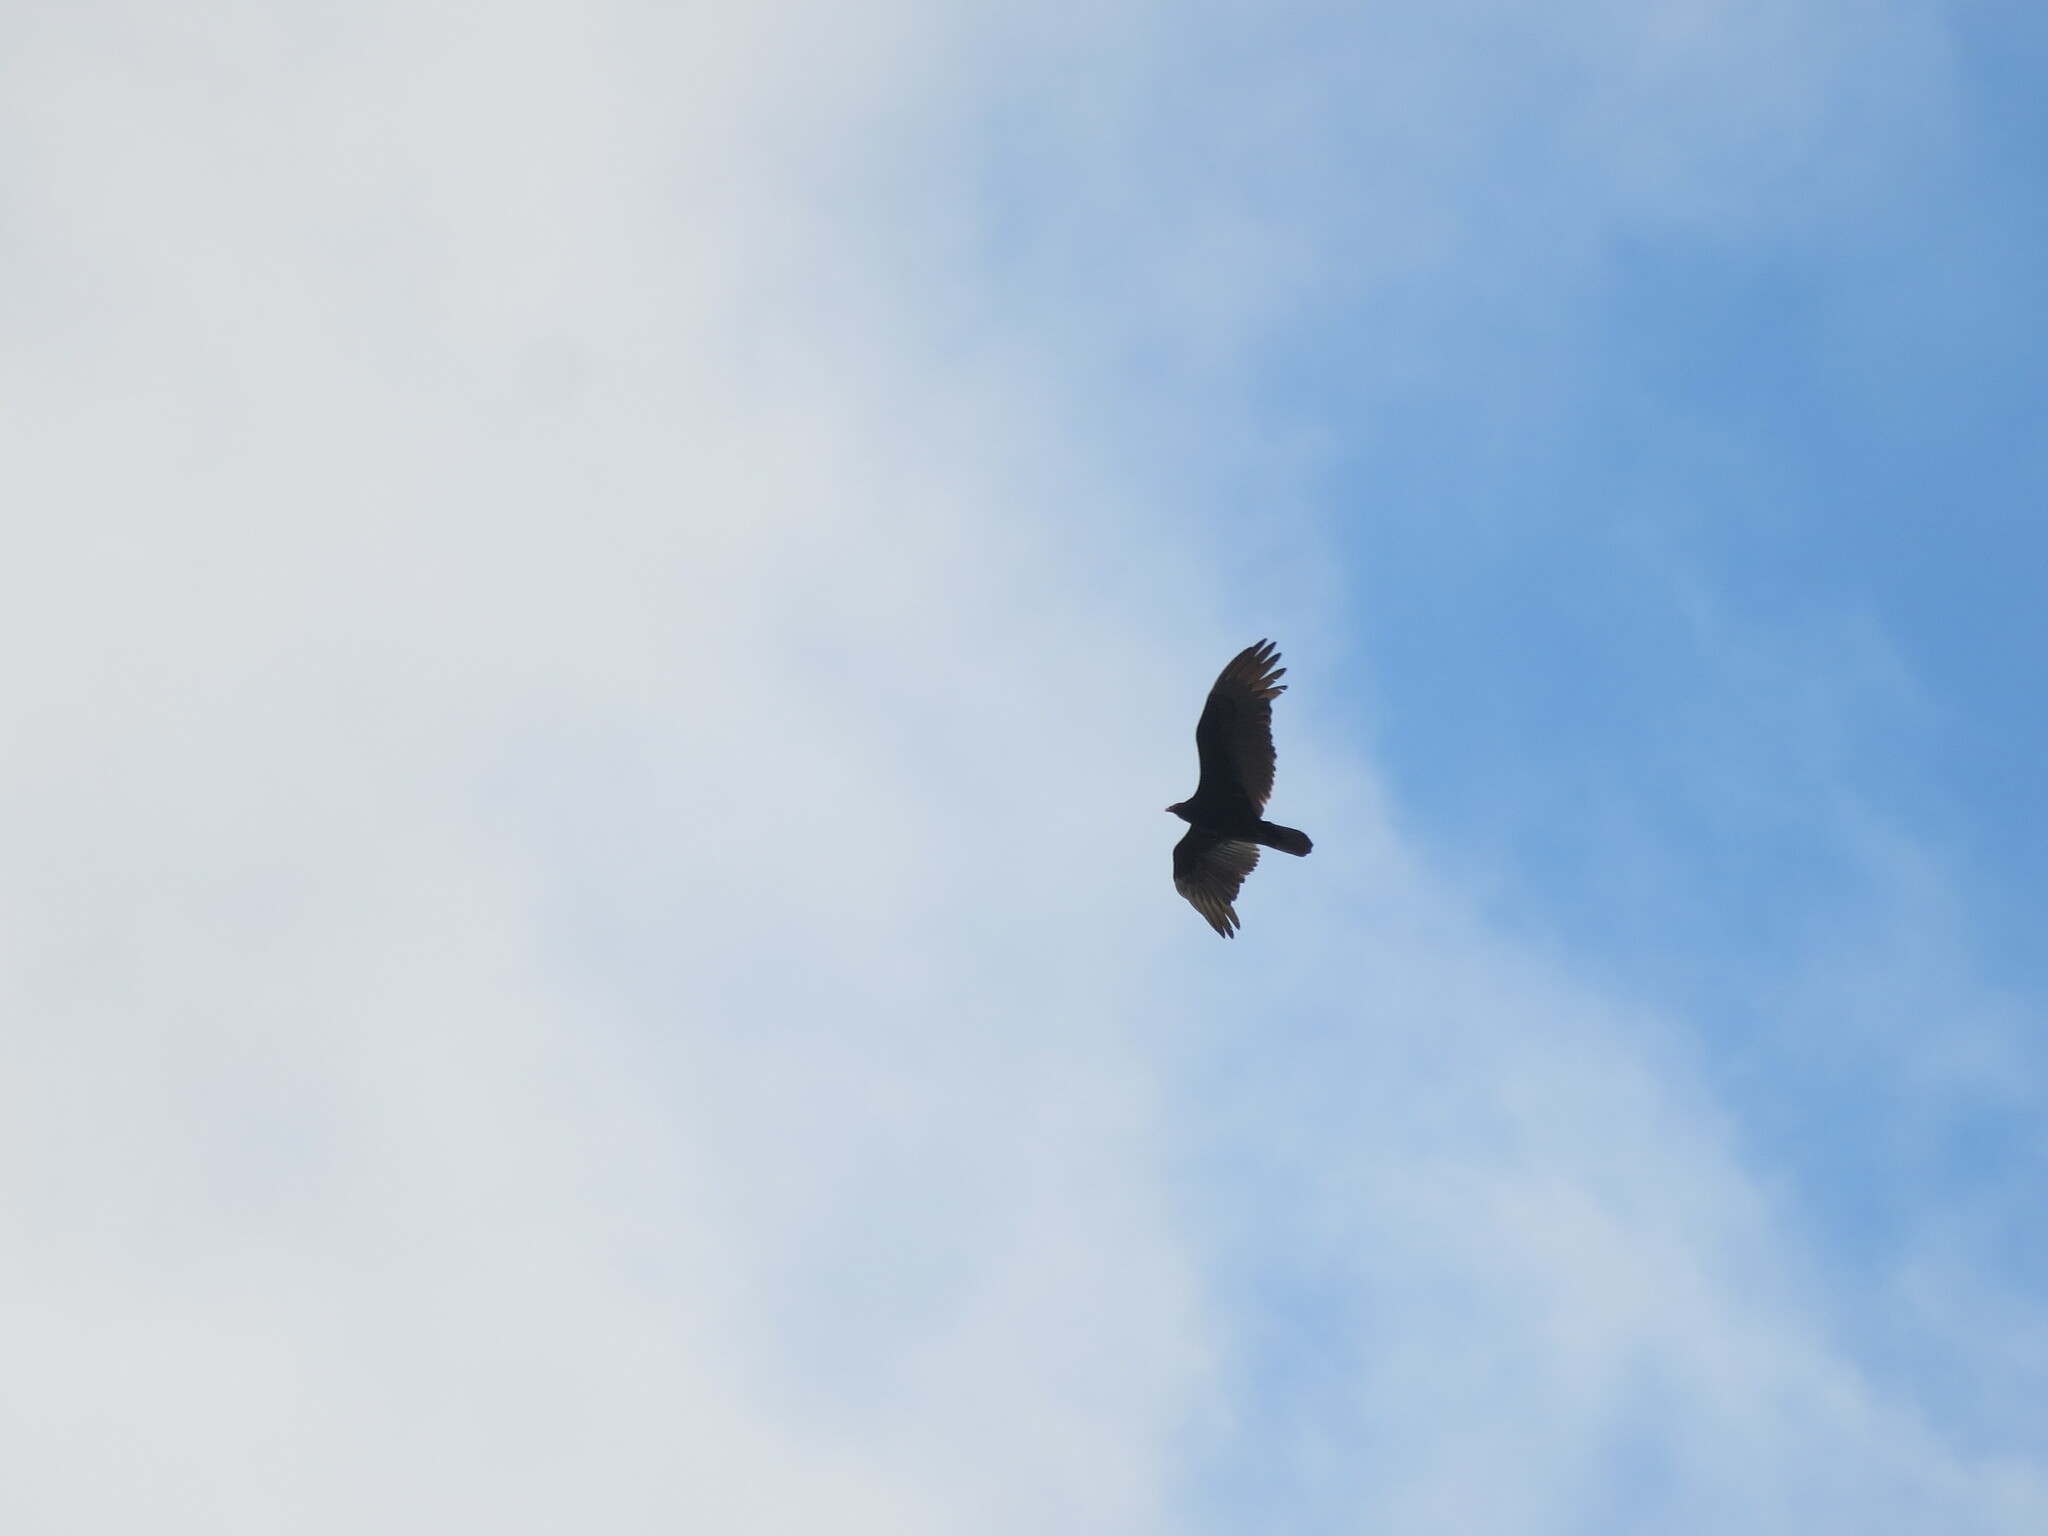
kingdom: Animalia
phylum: Chordata
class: Aves
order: Accipitriformes
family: Cathartidae
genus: Cathartes
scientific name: Cathartes aura
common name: Turkey vulture
